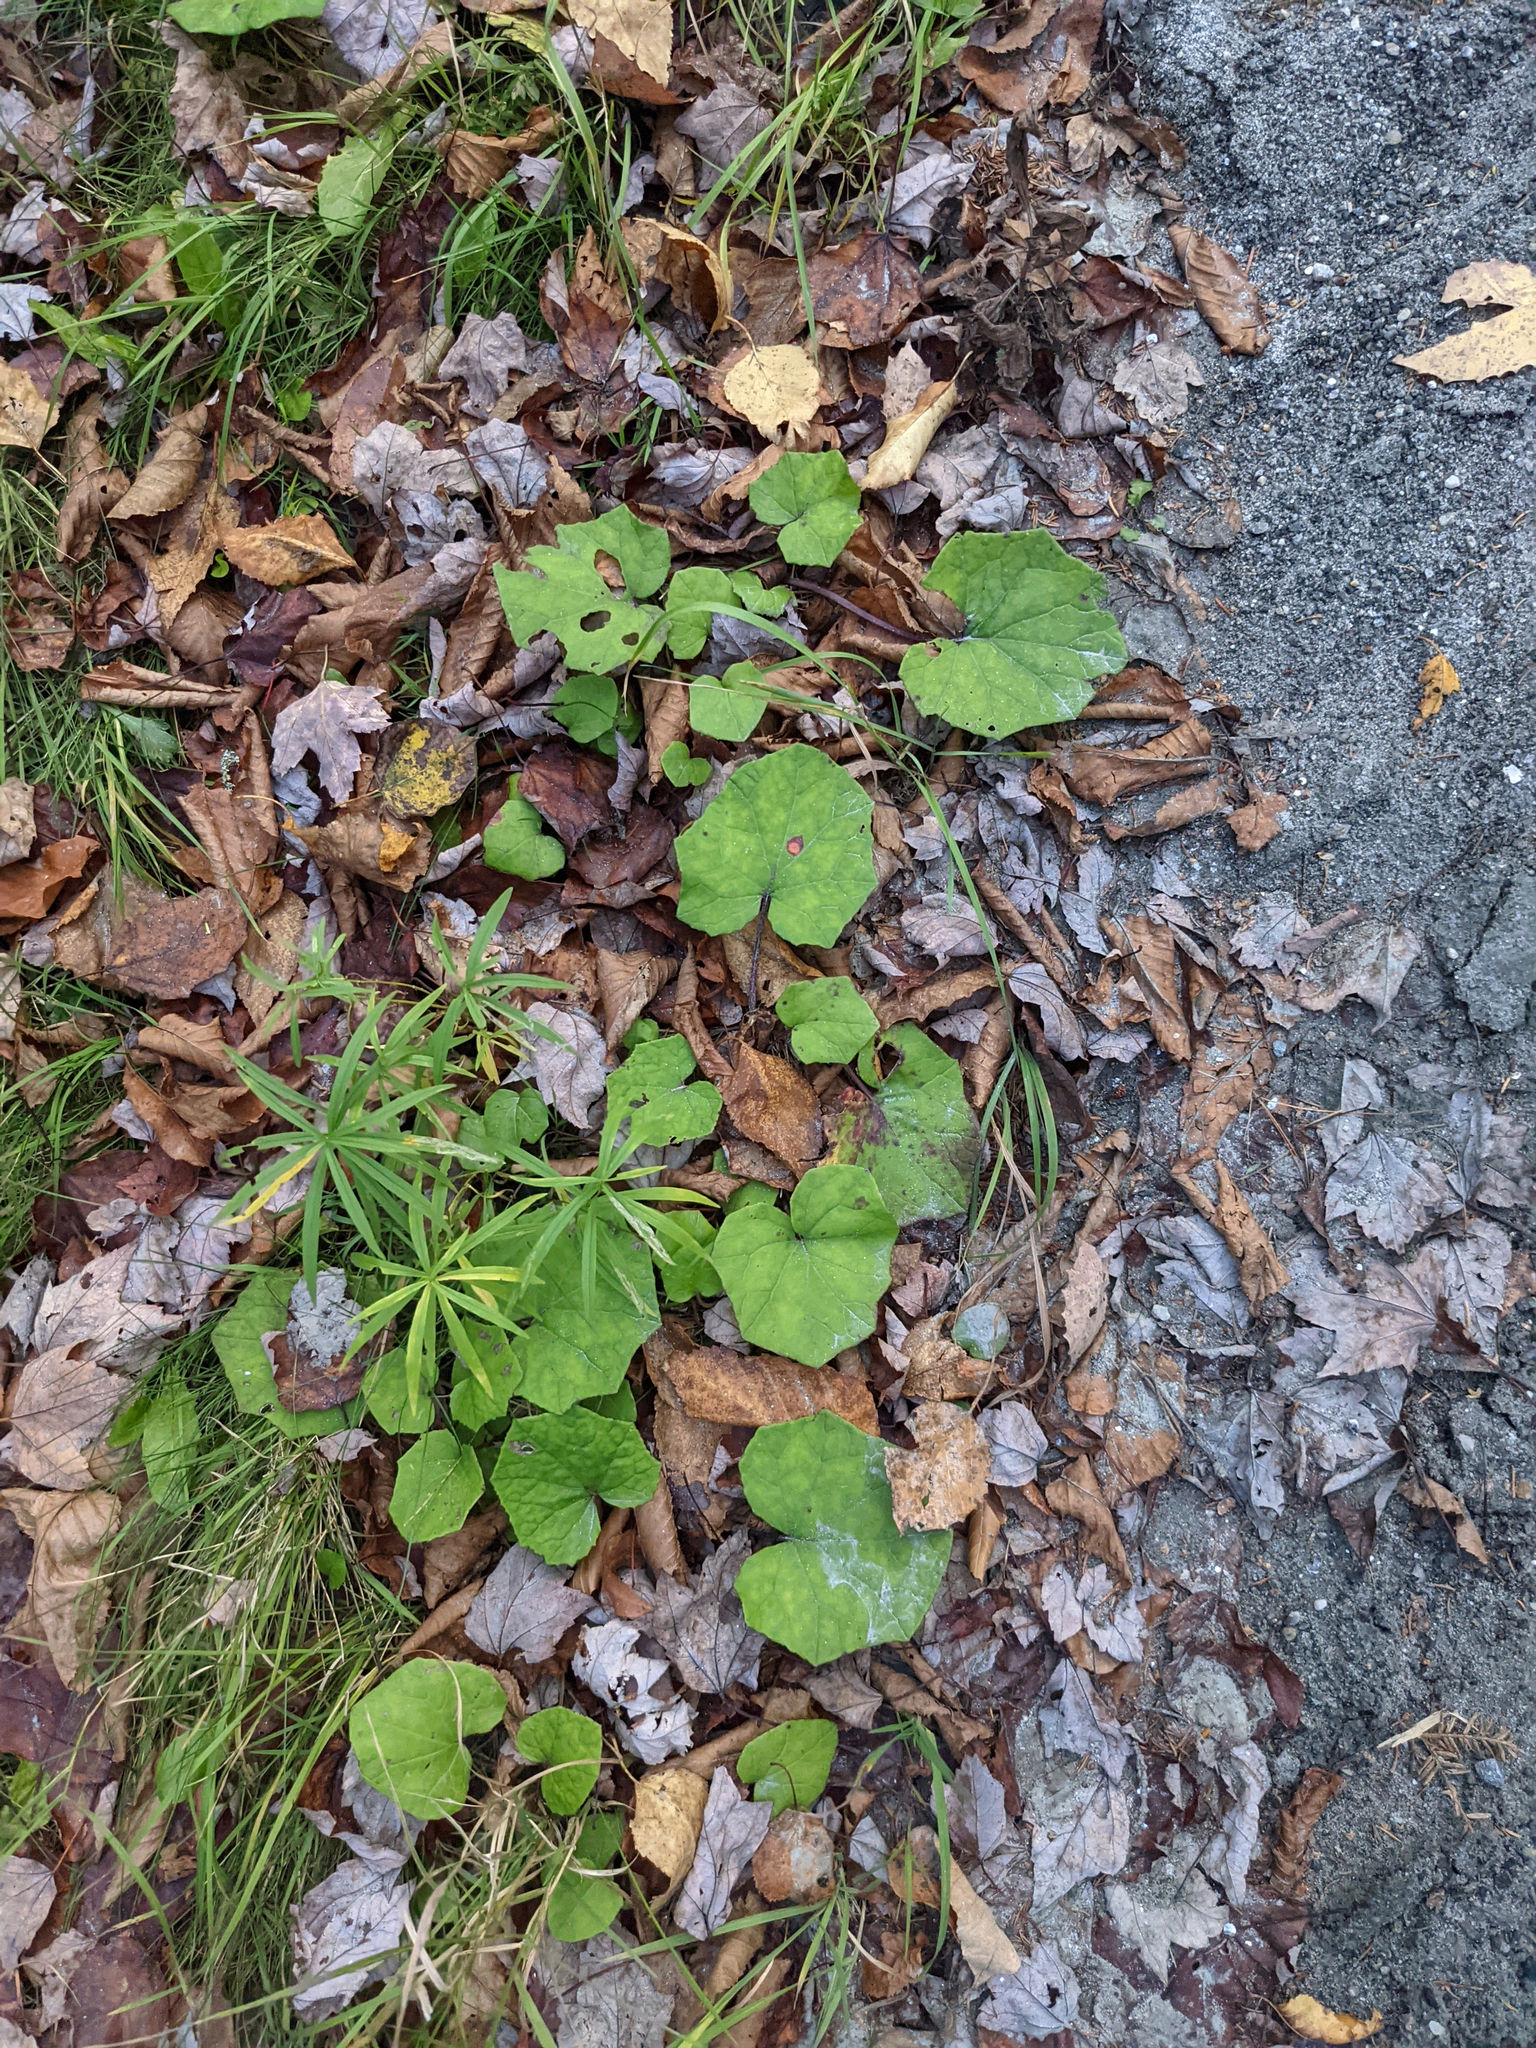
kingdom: Plantae
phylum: Tracheophyta
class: Magnoliopsida
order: Asterales
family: Asteraceae
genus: Tussilago
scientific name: Tussilago farfara
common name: Coltsfoot
